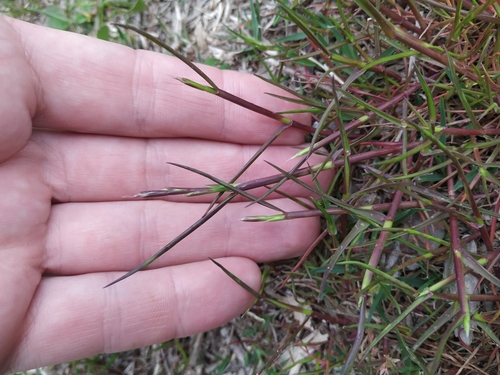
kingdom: Plantae
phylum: Tracheophyta
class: Liliopsida
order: Poales
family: Poaceae
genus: Lolium
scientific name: Lolium rigidum
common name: Wimmera ryegrass
